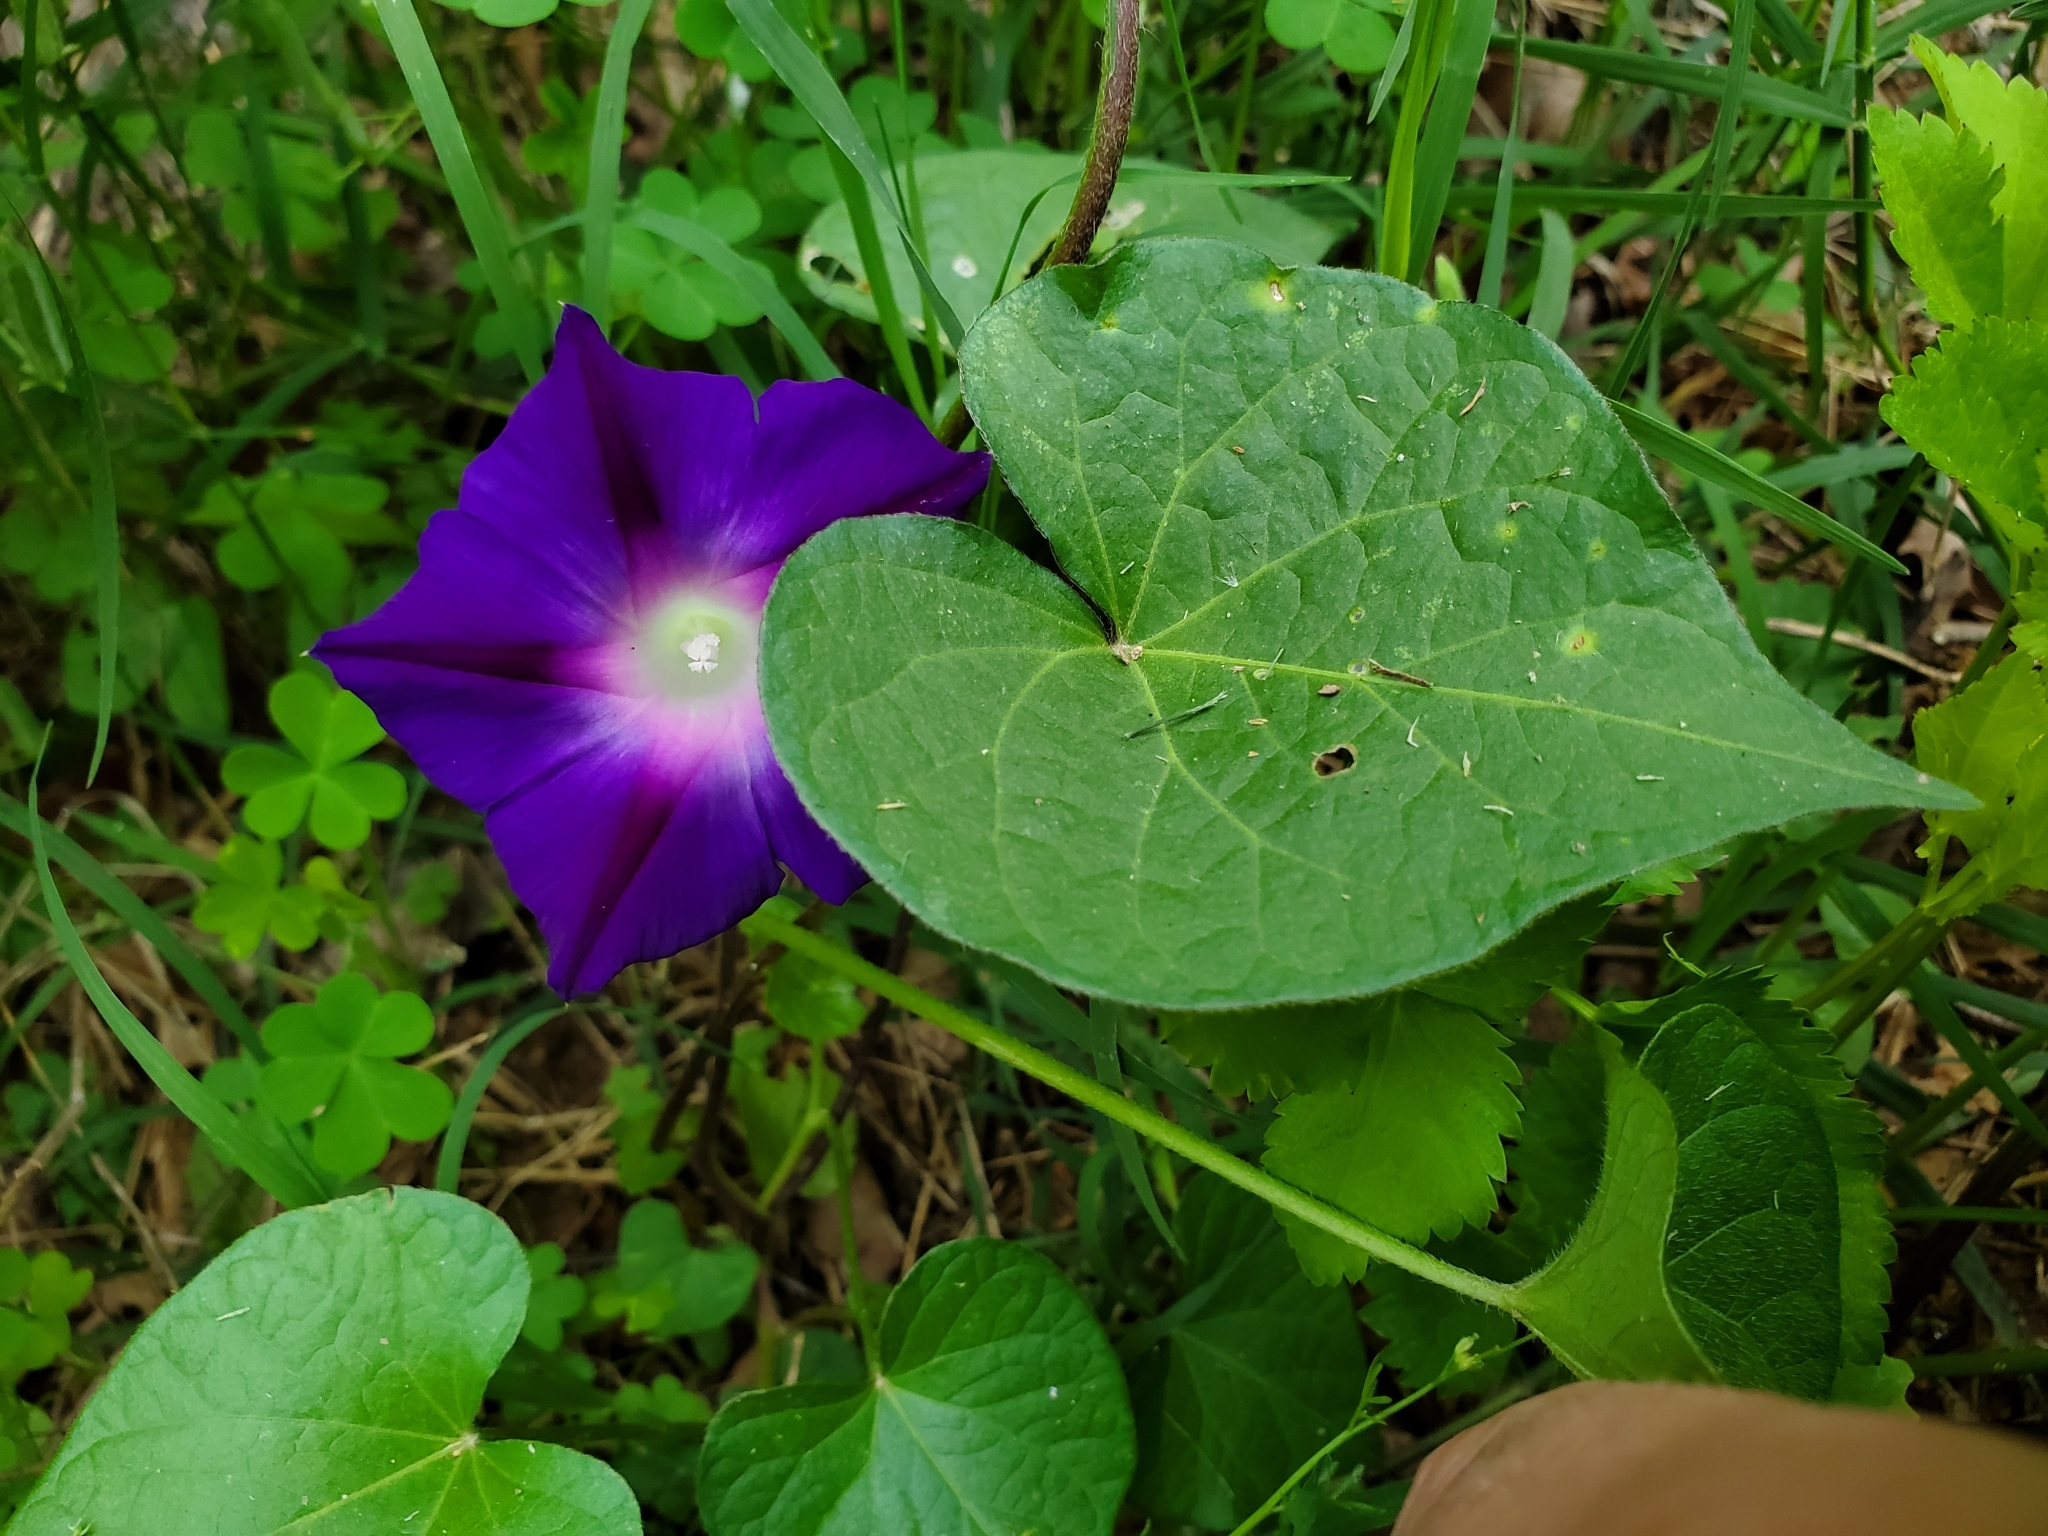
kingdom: Plantae
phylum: Tracheophyta
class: Magnoliopsida
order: Solanales
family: Convolvulaceae
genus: Ipomoea
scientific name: Ipomoea purpurea
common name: Common morning-glory
